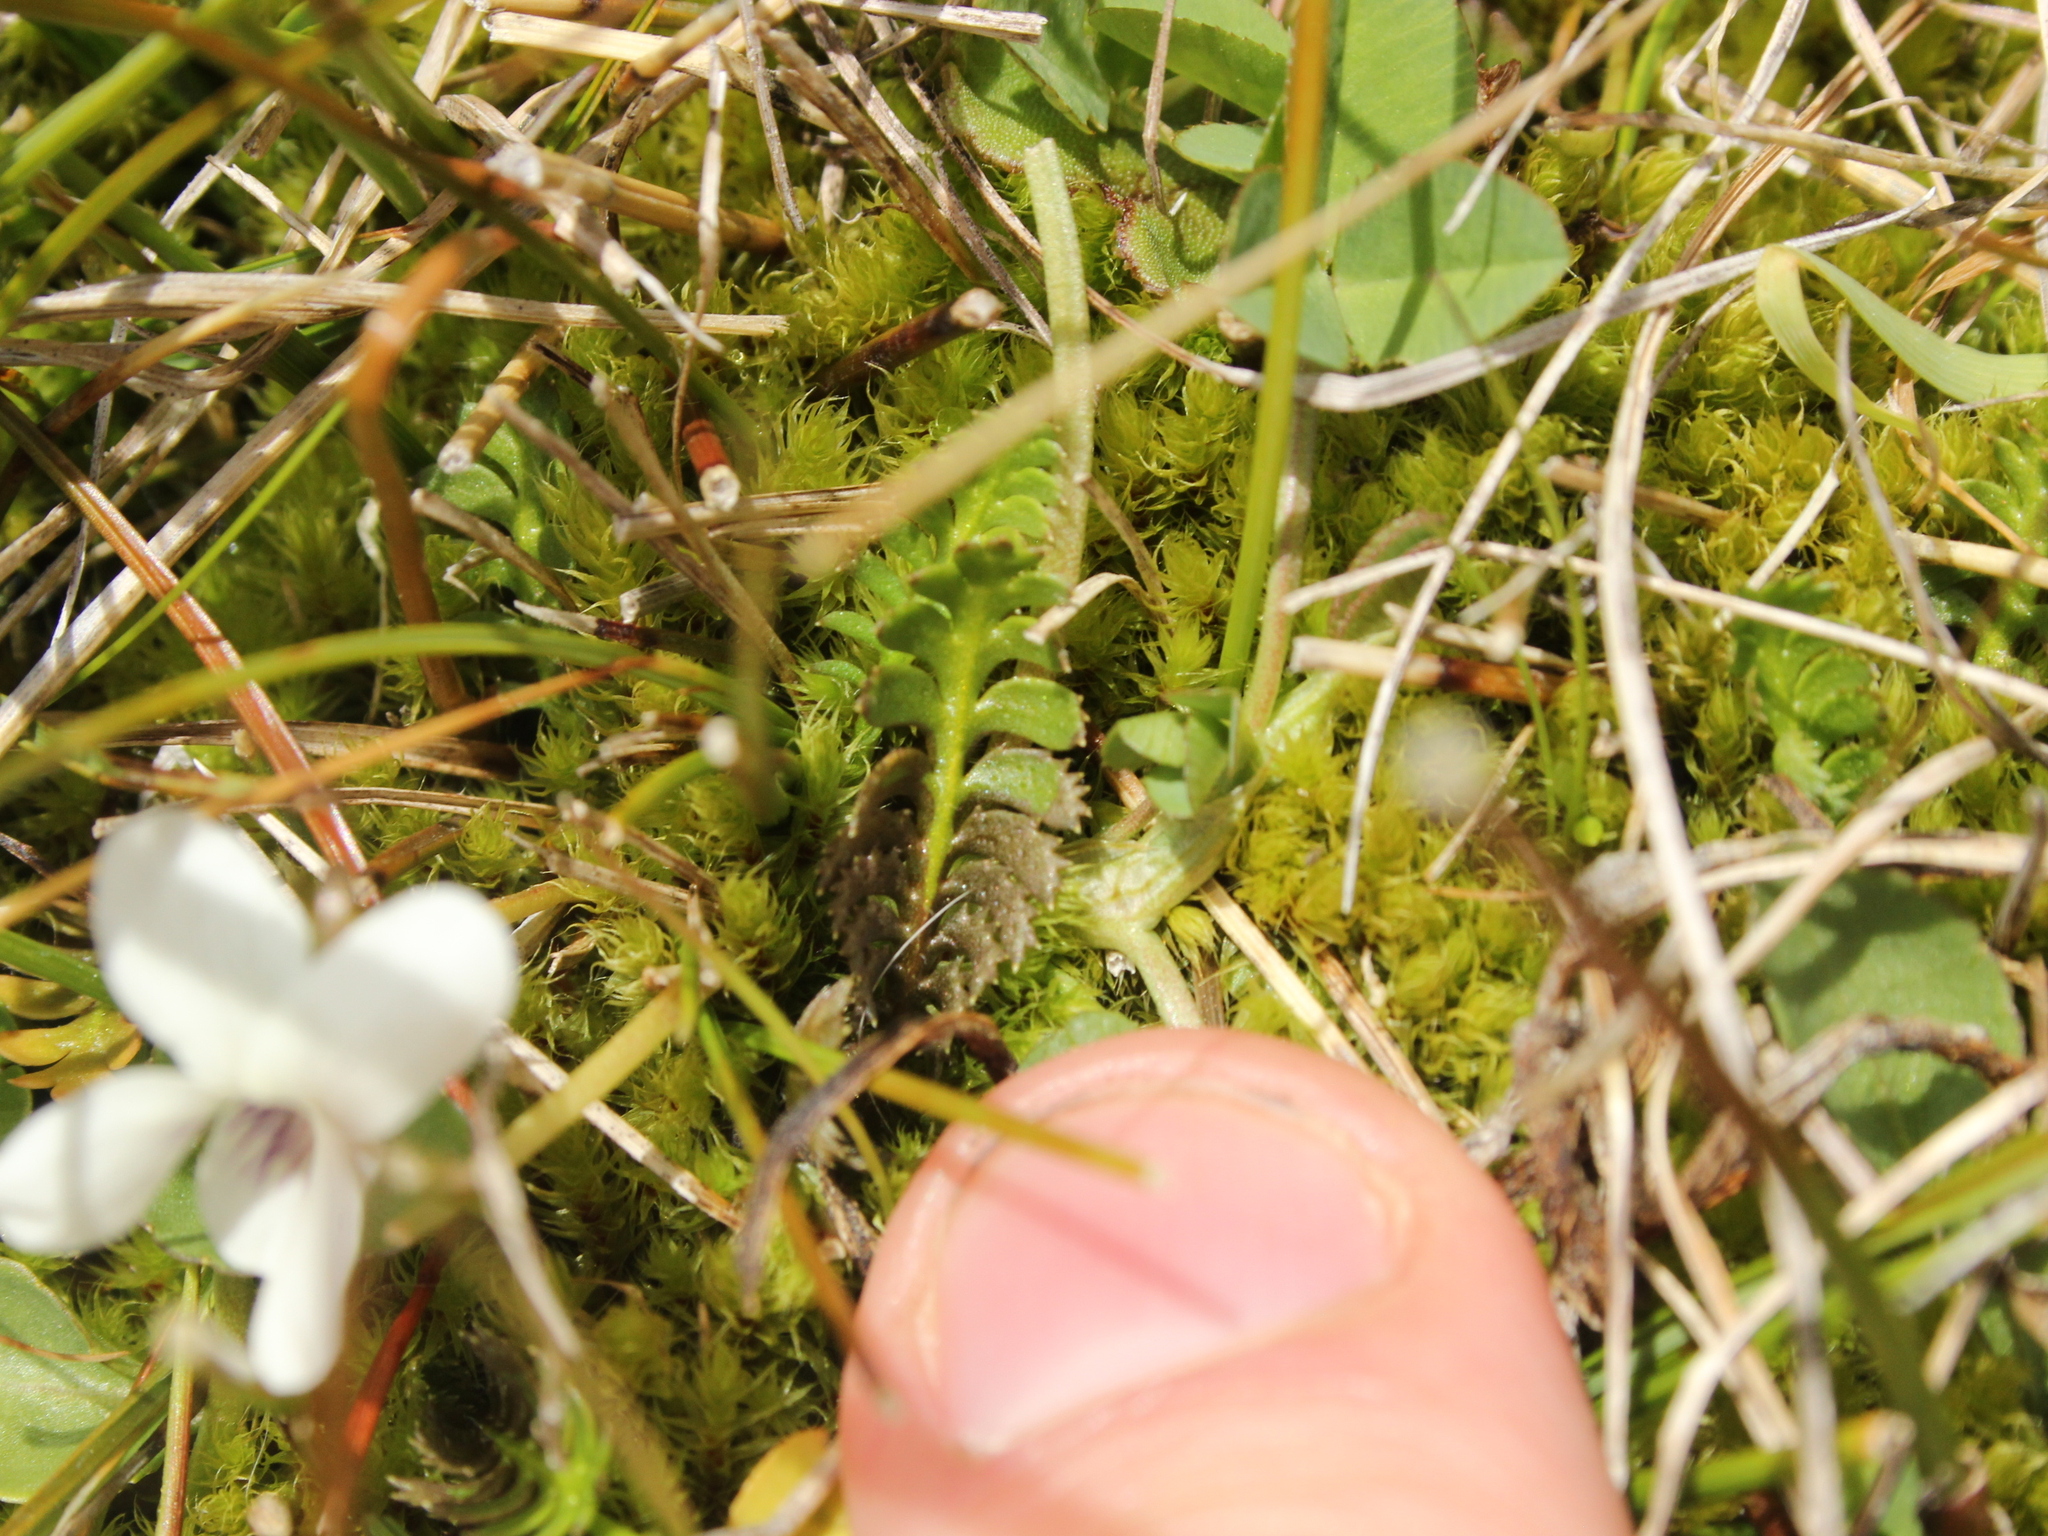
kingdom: Plantae
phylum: Tracheophyta
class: Magnoliopsida
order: Asterales
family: Asteraceae
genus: Leptinella
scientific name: Leptinella squalida
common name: New zealand brass-buttons
